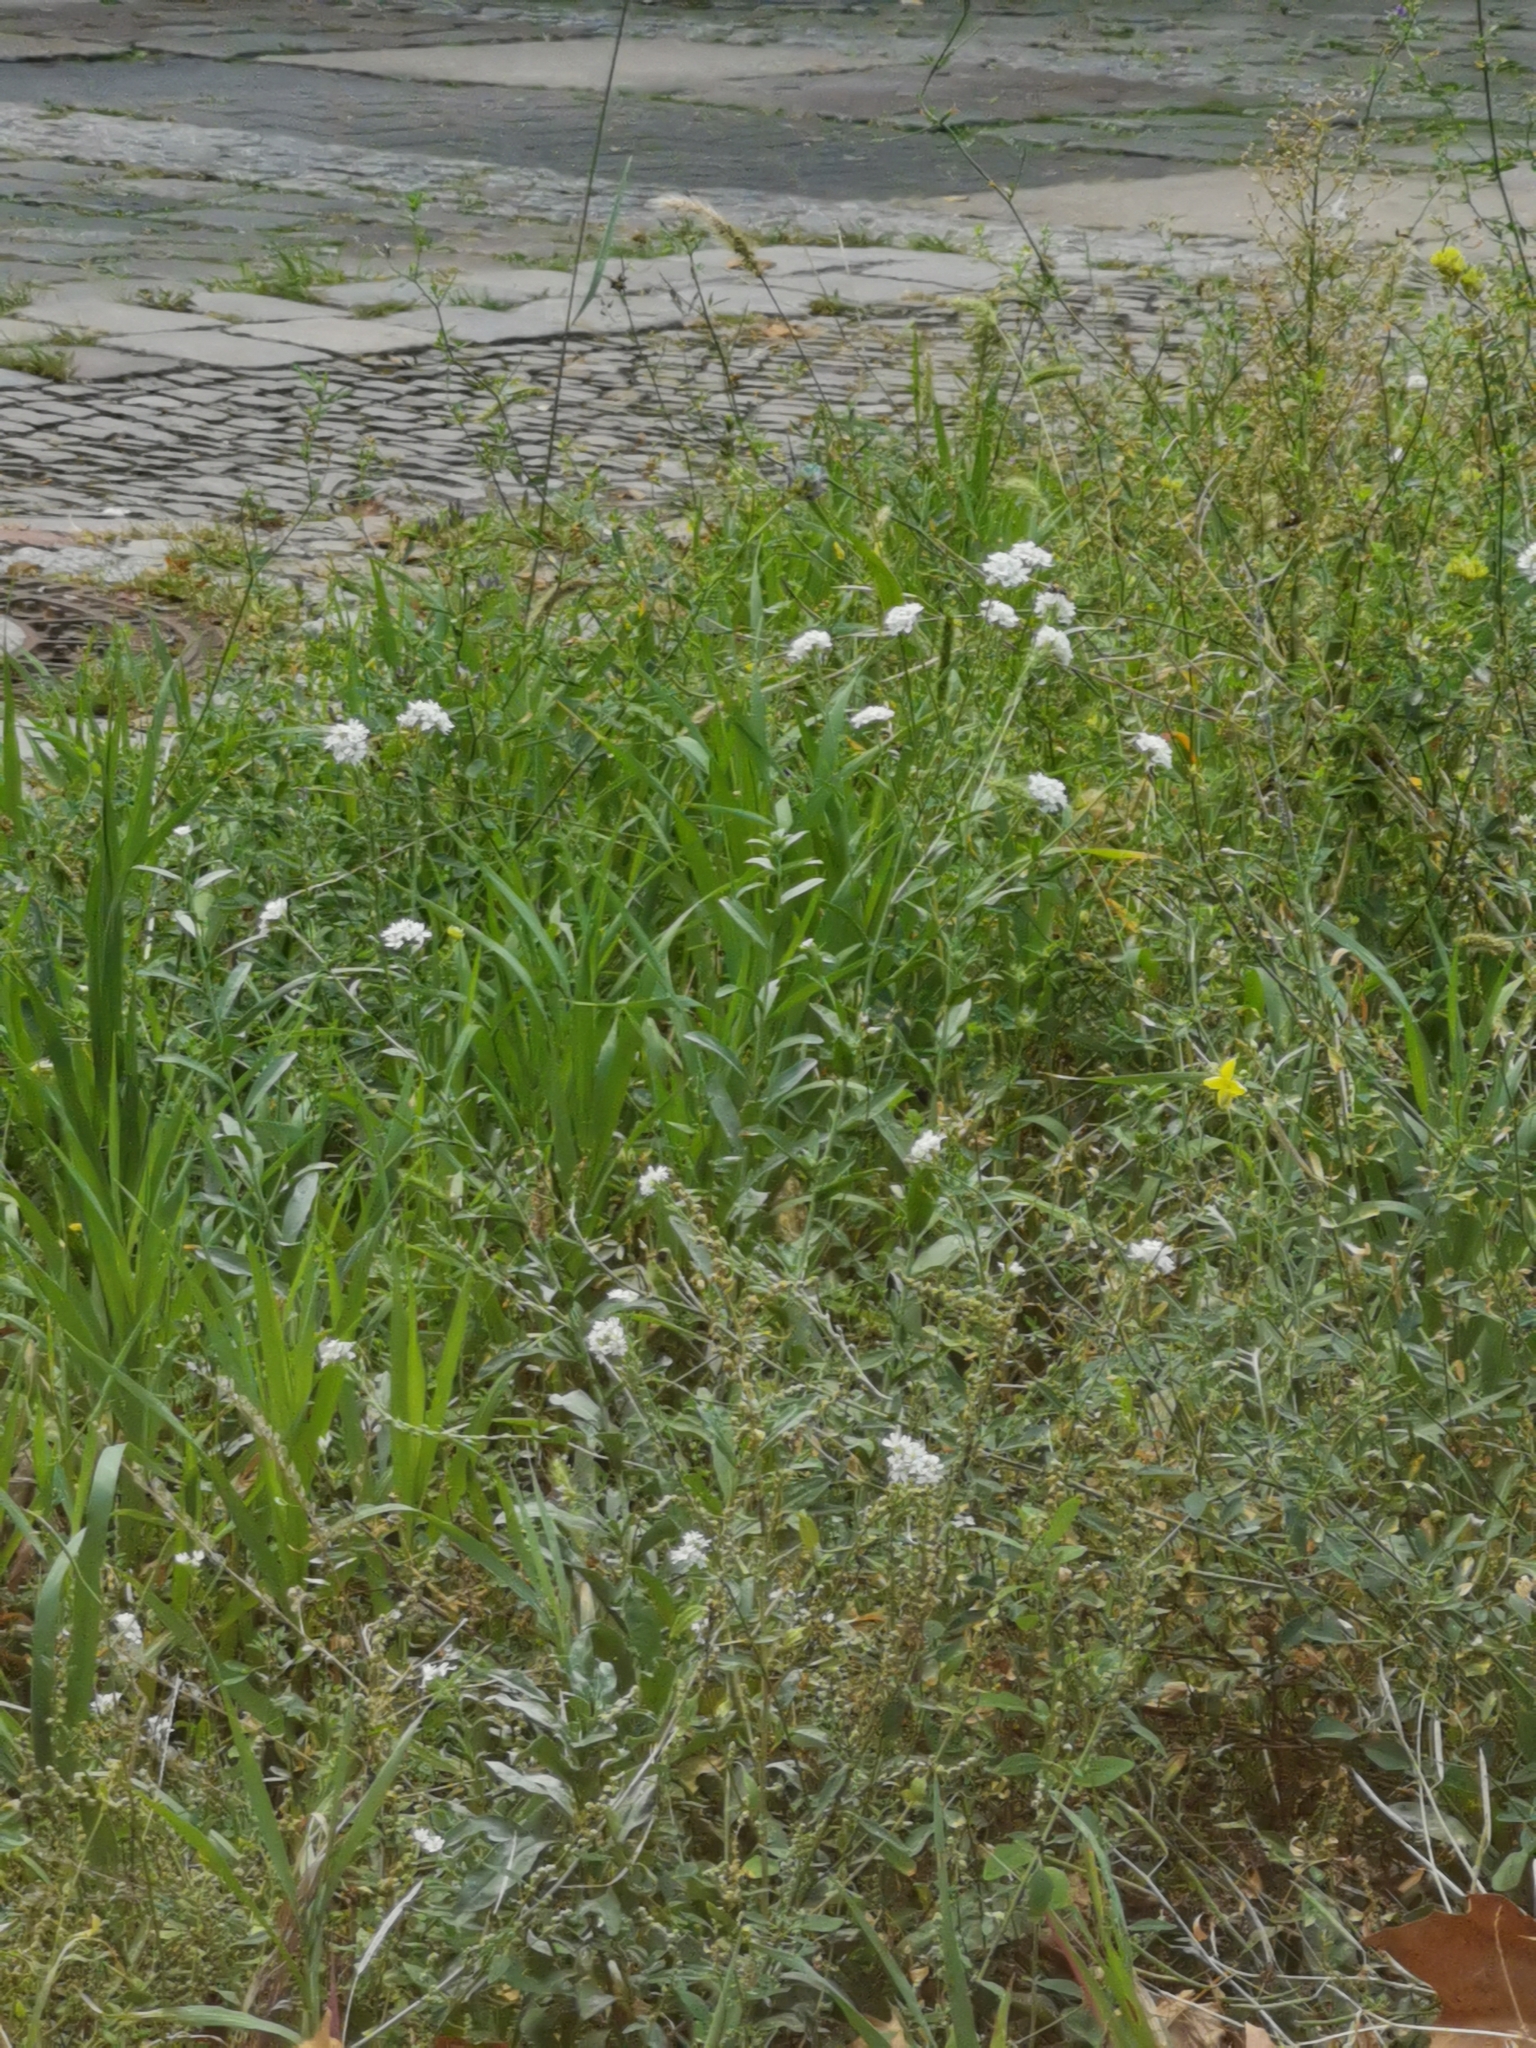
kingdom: Plantae
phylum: Tracheophyta
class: Magnoliopsida
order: Brassicales
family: Brassicaceae
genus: Berteroa
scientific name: Berteroa incana
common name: Hoary alison
